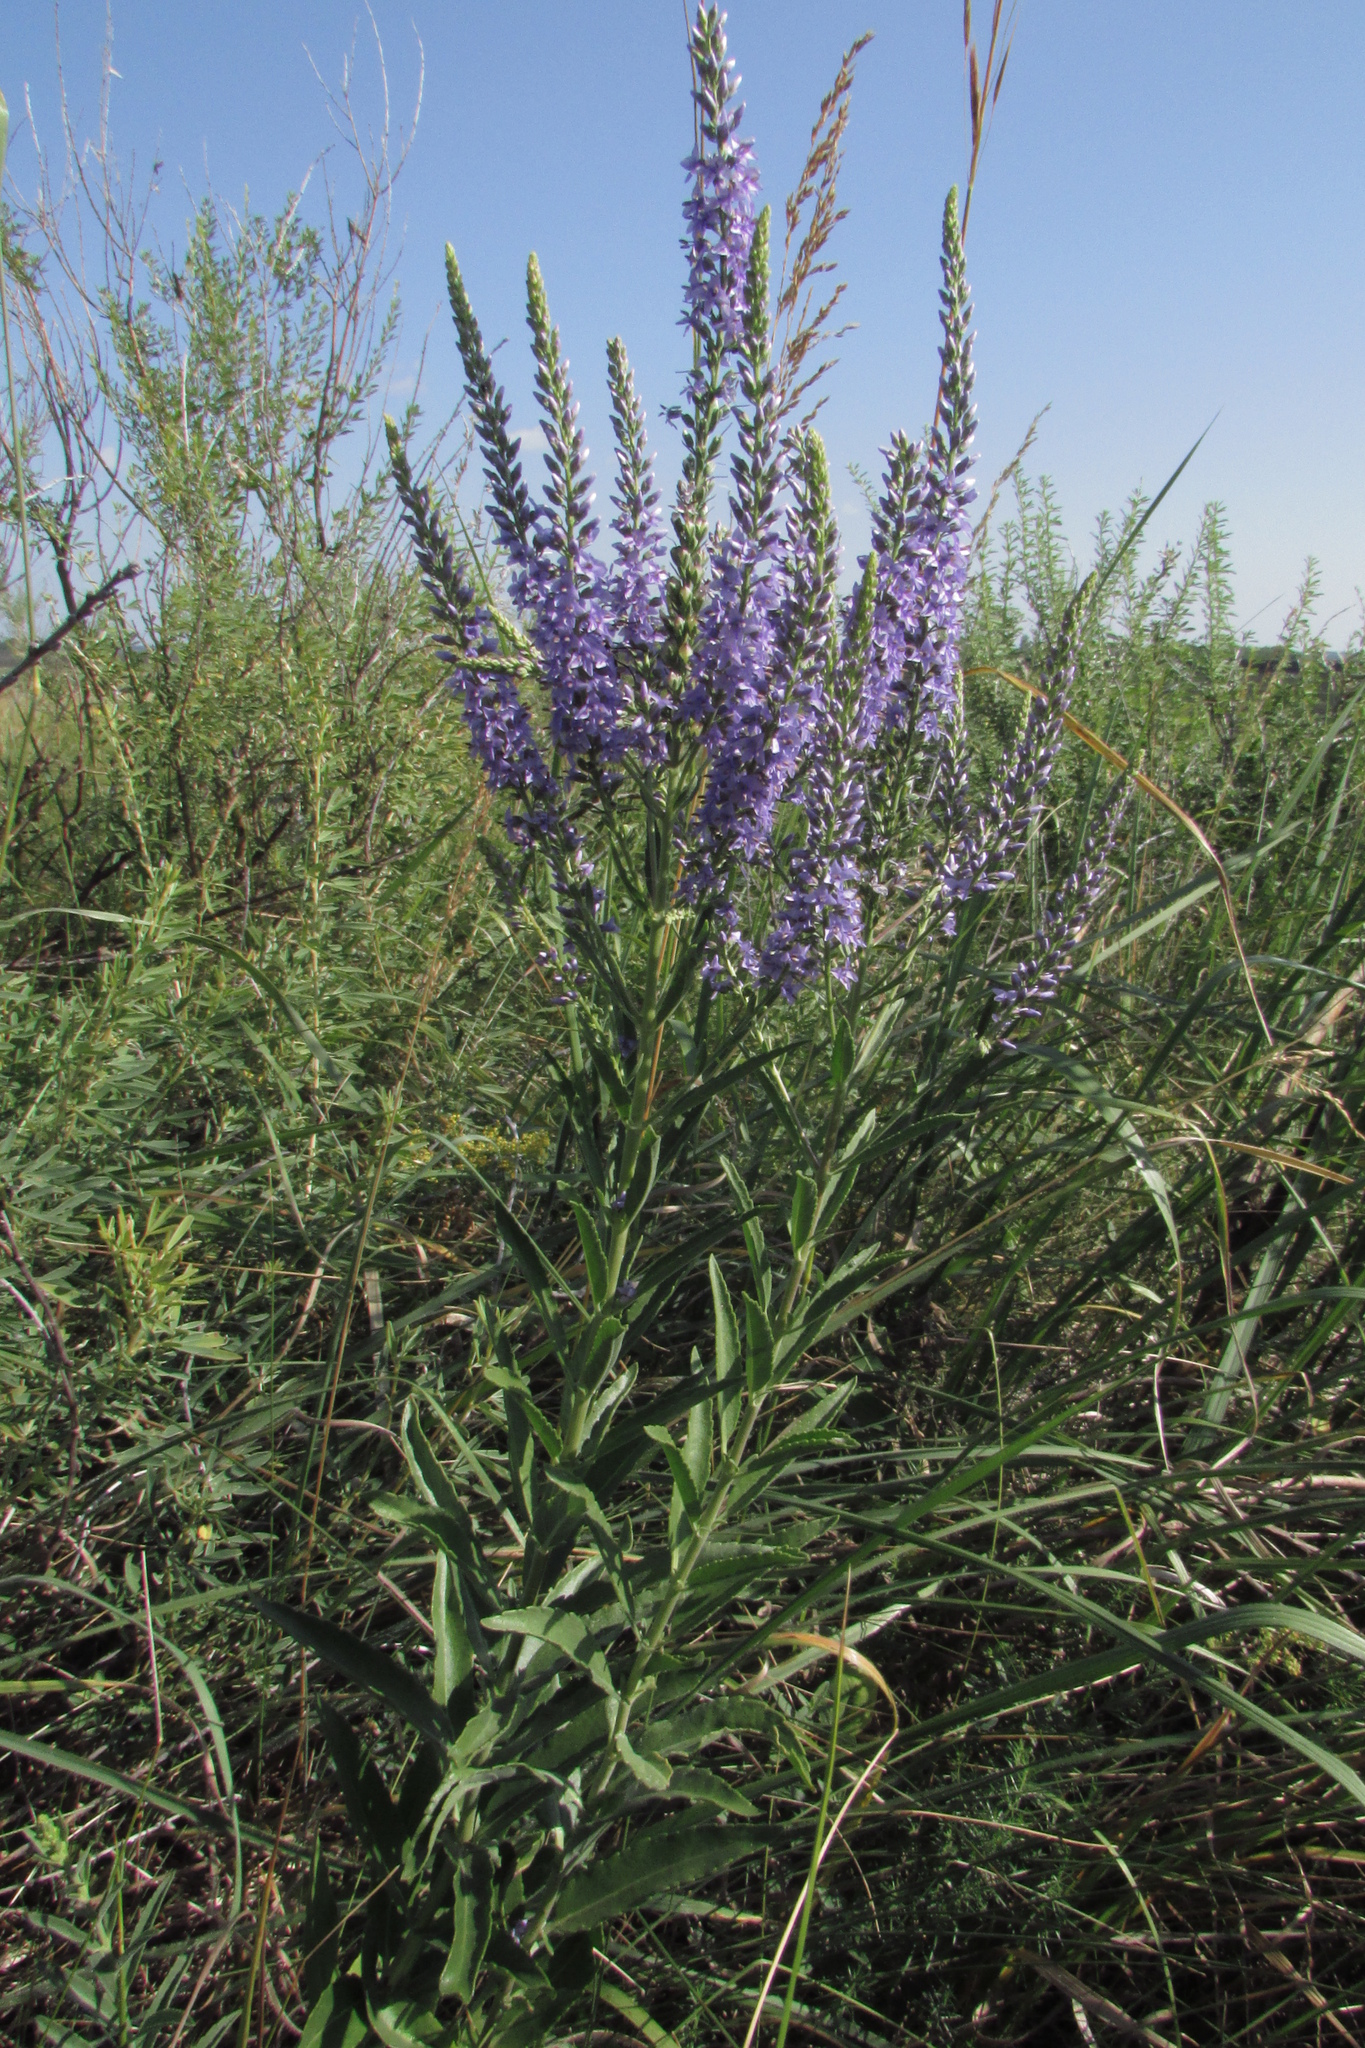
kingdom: Plantae
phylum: Tracheophyta
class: Magnoliopsida
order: Lamiales
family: Plantaginaceae
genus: Veronica
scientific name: Veronica spuria
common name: Bastard speedwell
